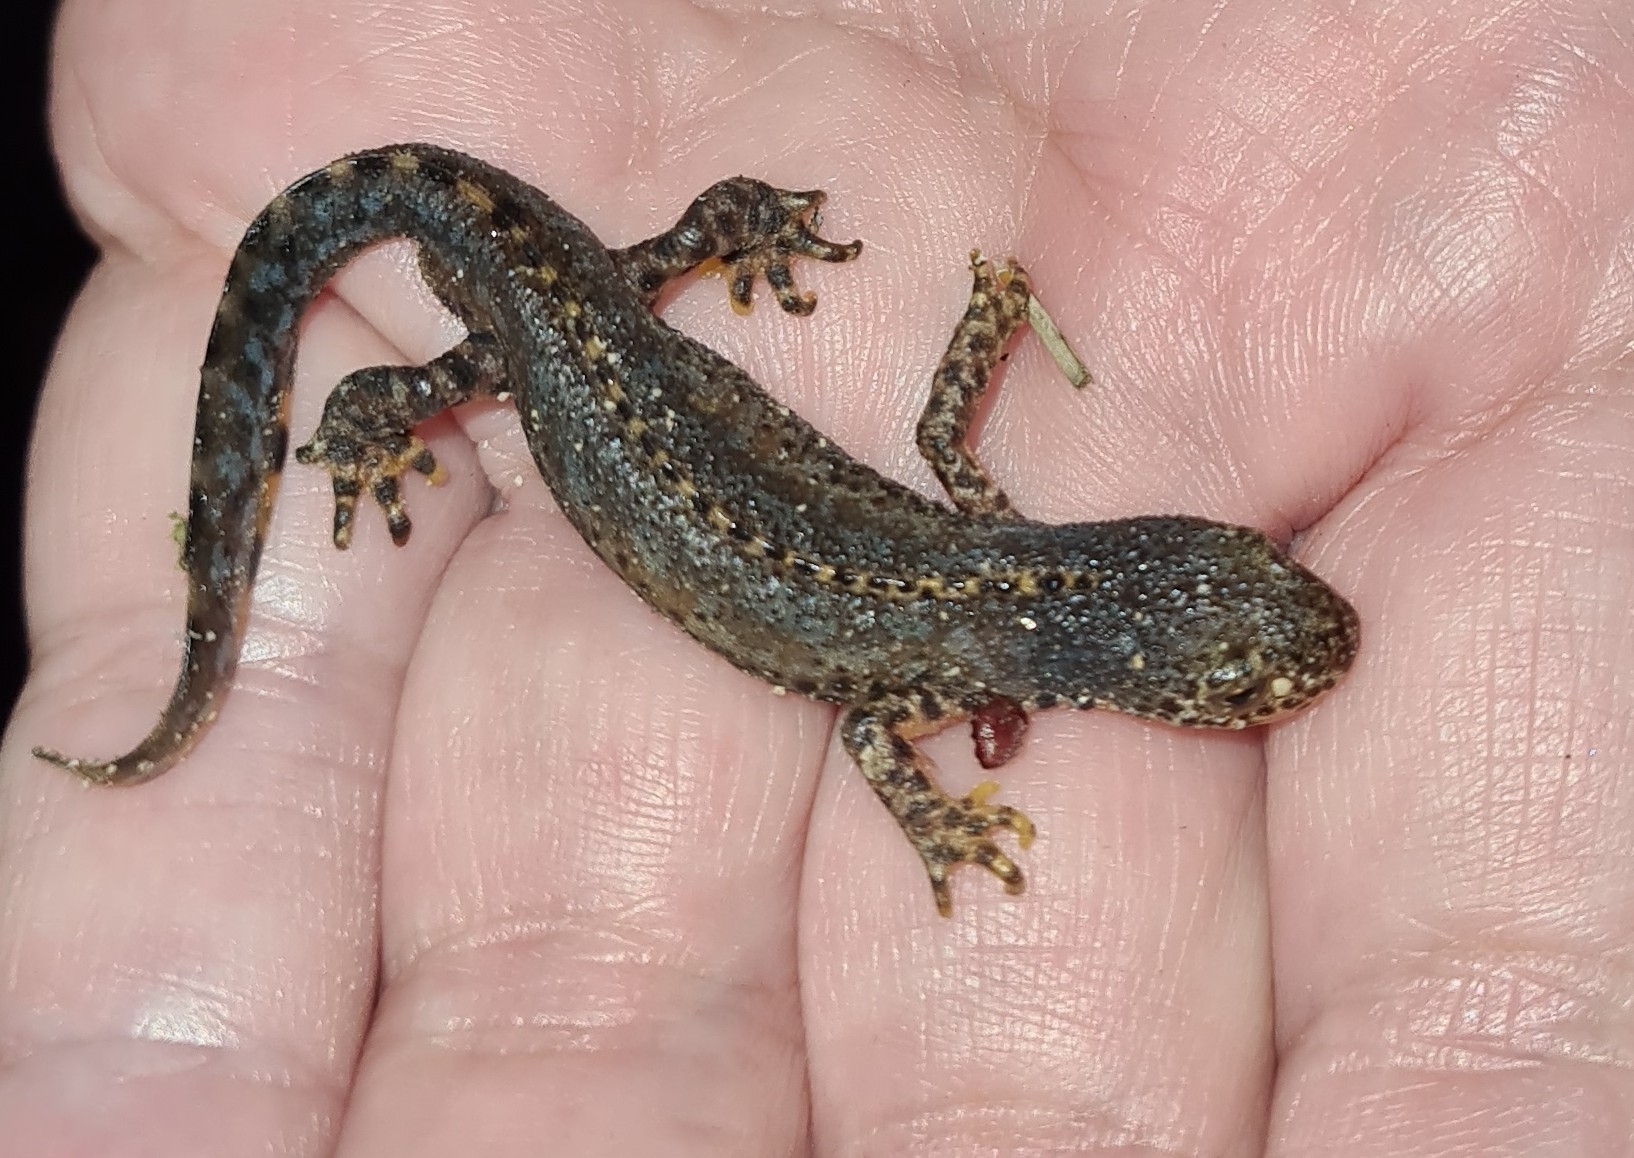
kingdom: Animalia
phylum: Chordata
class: Amphibia
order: Caudata
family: Salamandridae
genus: Ichthyosaura
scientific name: Ichthyosaura alpestris
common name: Alpine newt
